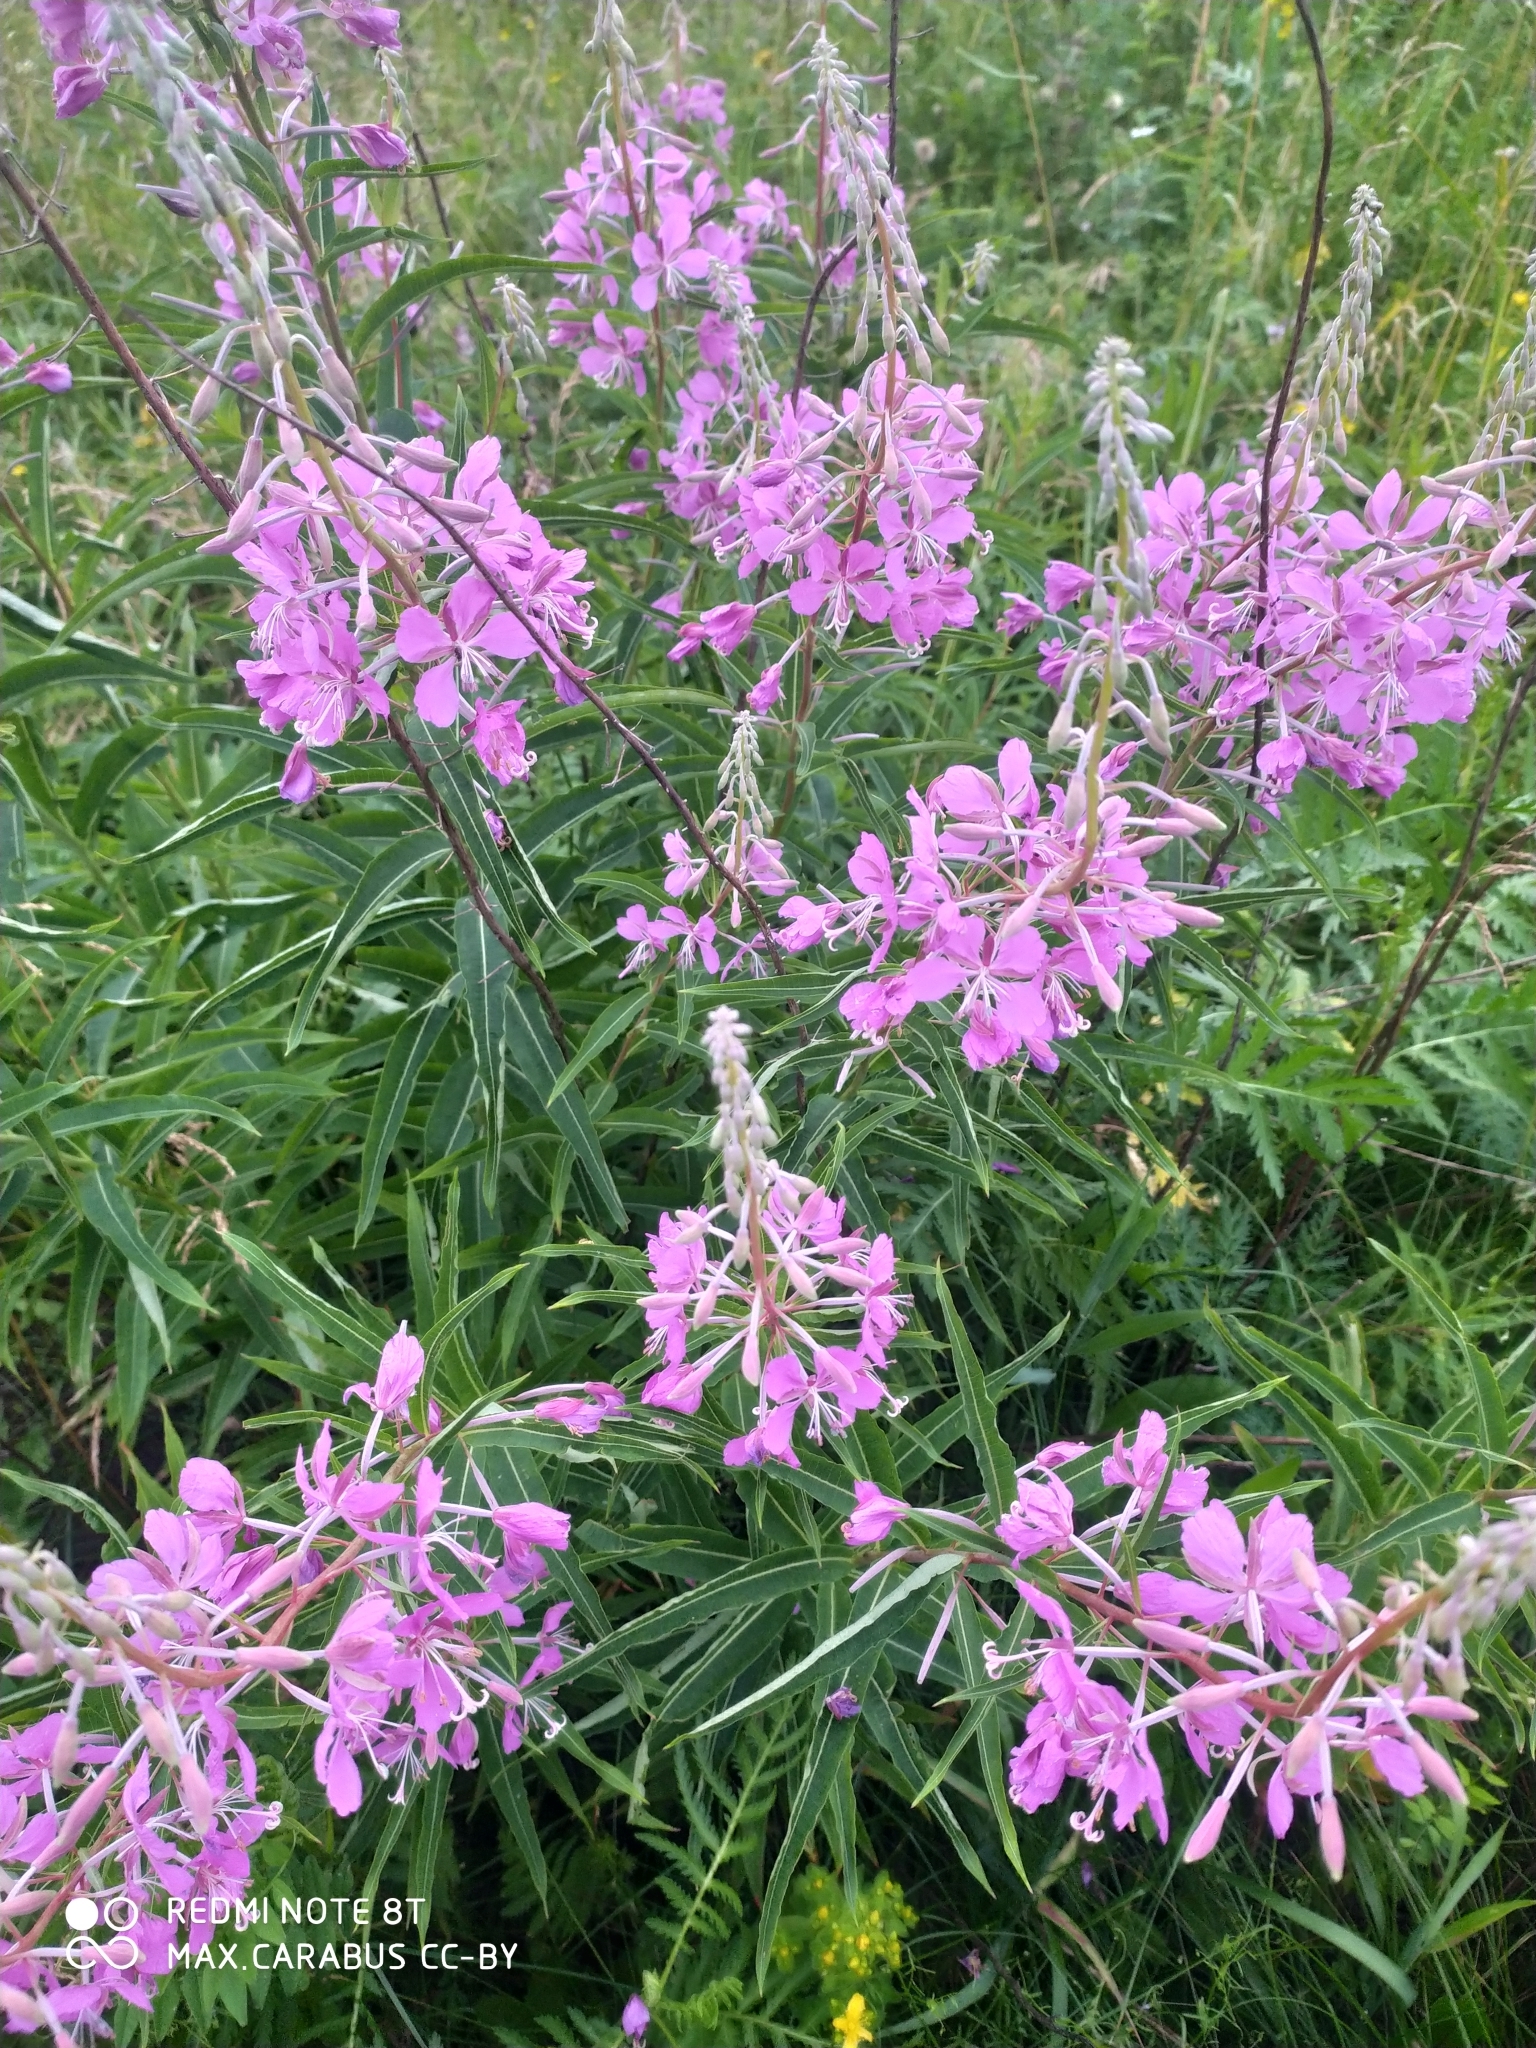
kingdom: Plantae
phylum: Tracheophyta
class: Magnoliopsida
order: Myrtales
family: Onagraceae
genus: Chamaenerion
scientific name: Chamaenerion angustifolium
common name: Fireweed
